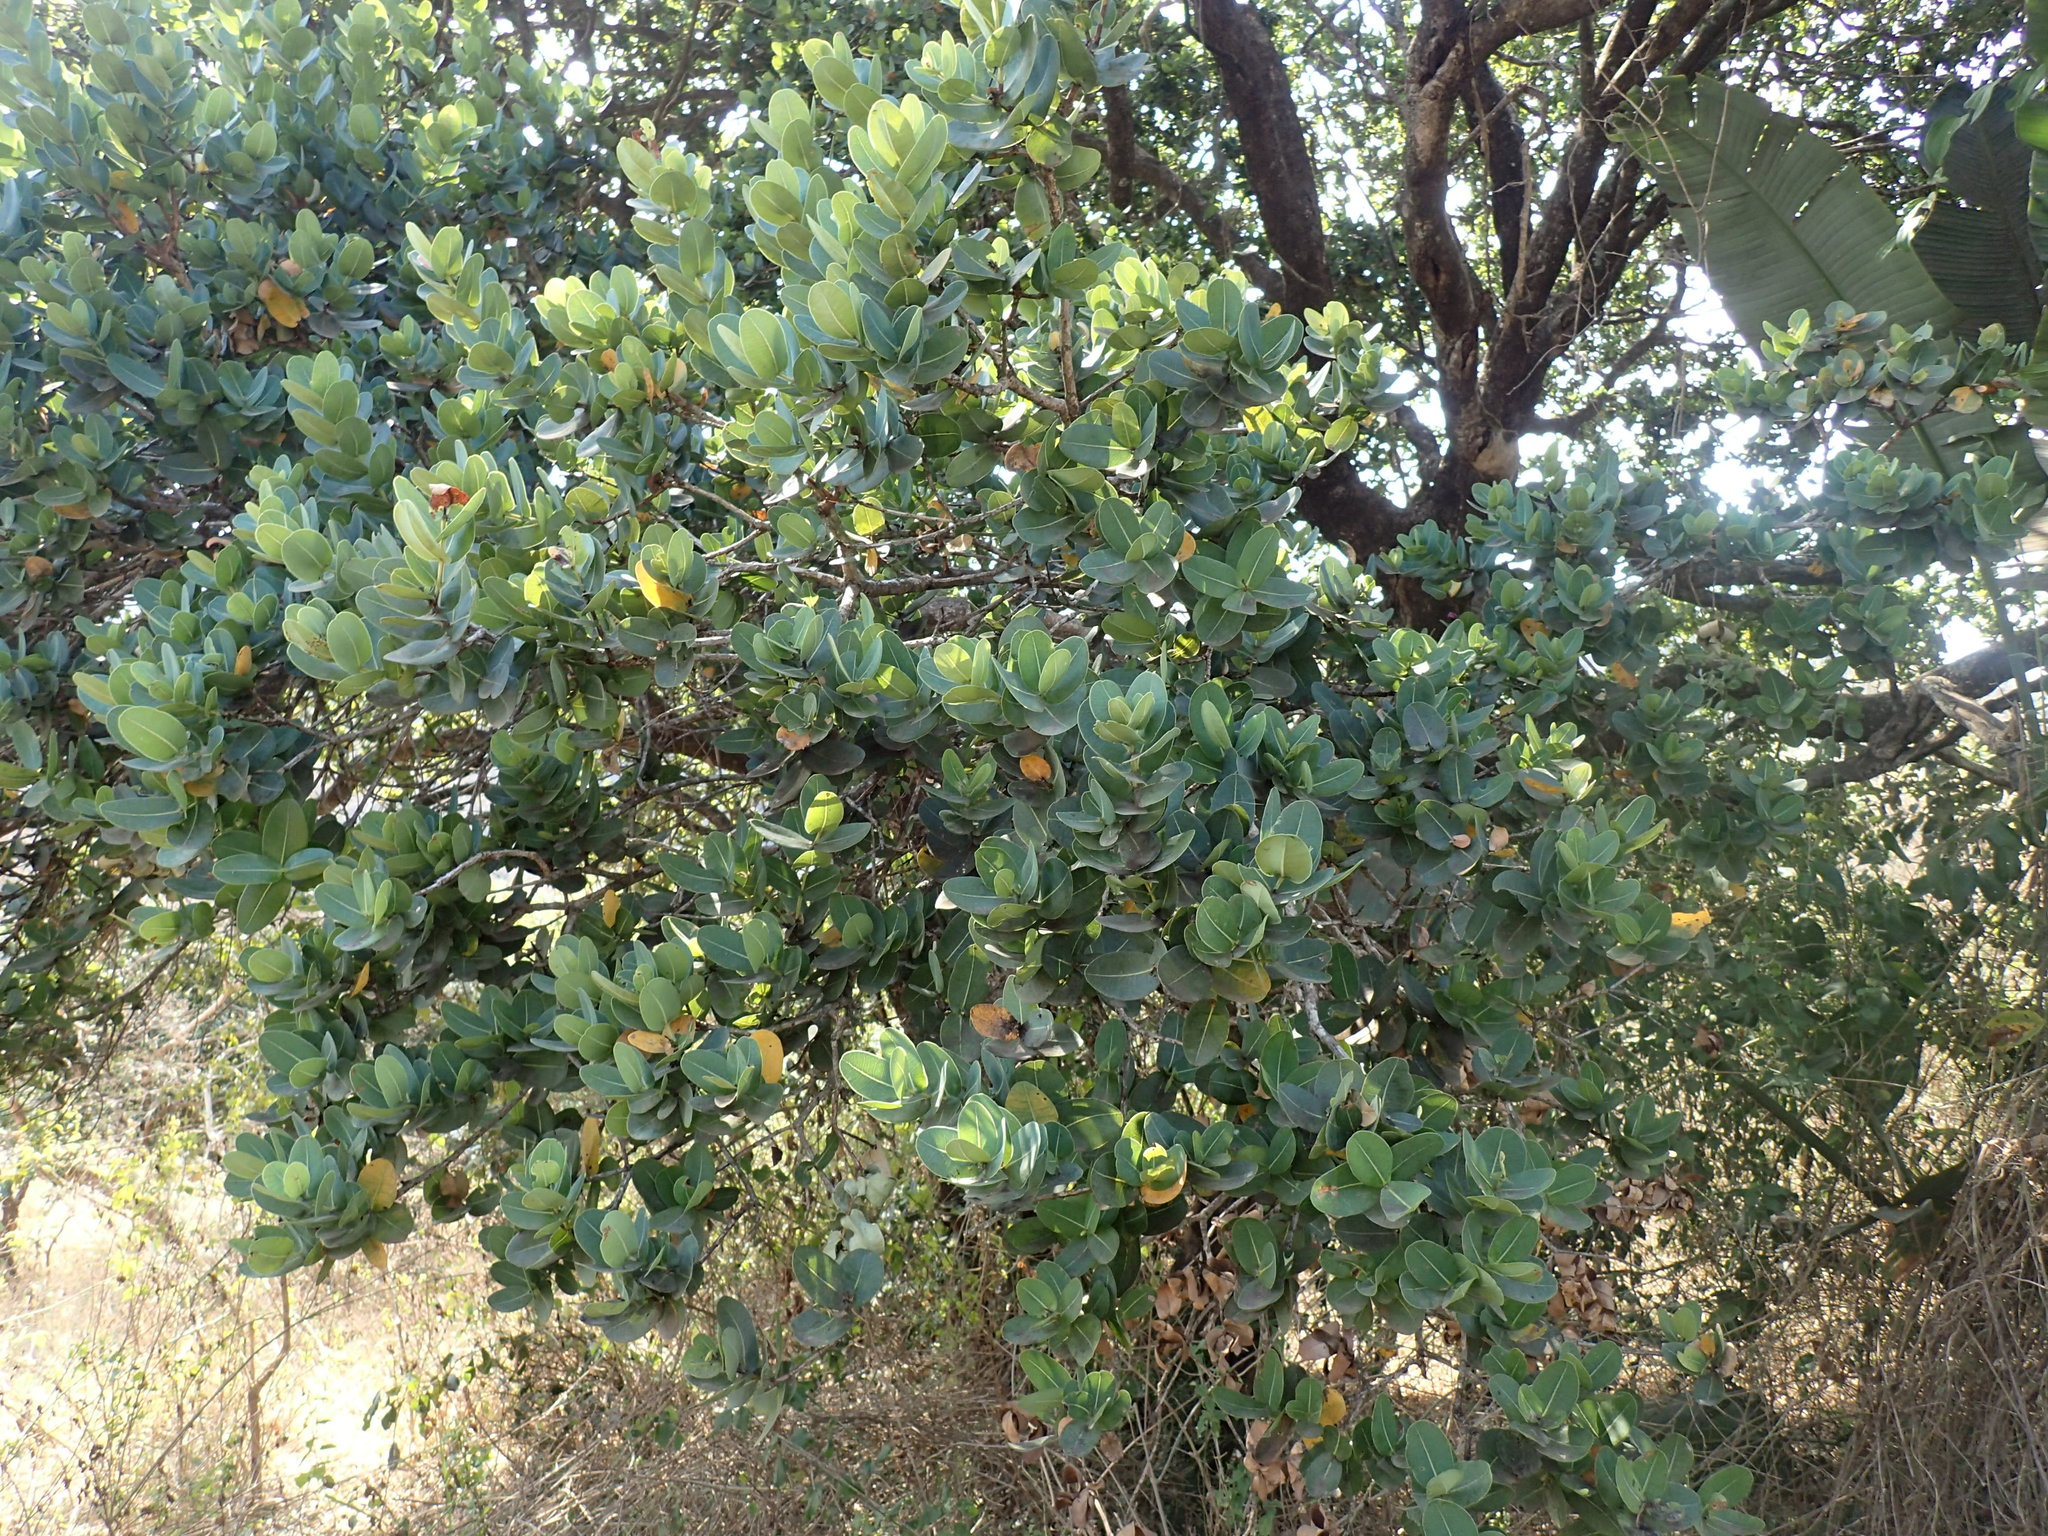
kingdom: Plantae
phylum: Tracheophyta
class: Magnoliopsida
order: Myrtales
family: Myrtaceae
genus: Syzygium
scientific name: Syzygium cordatum
